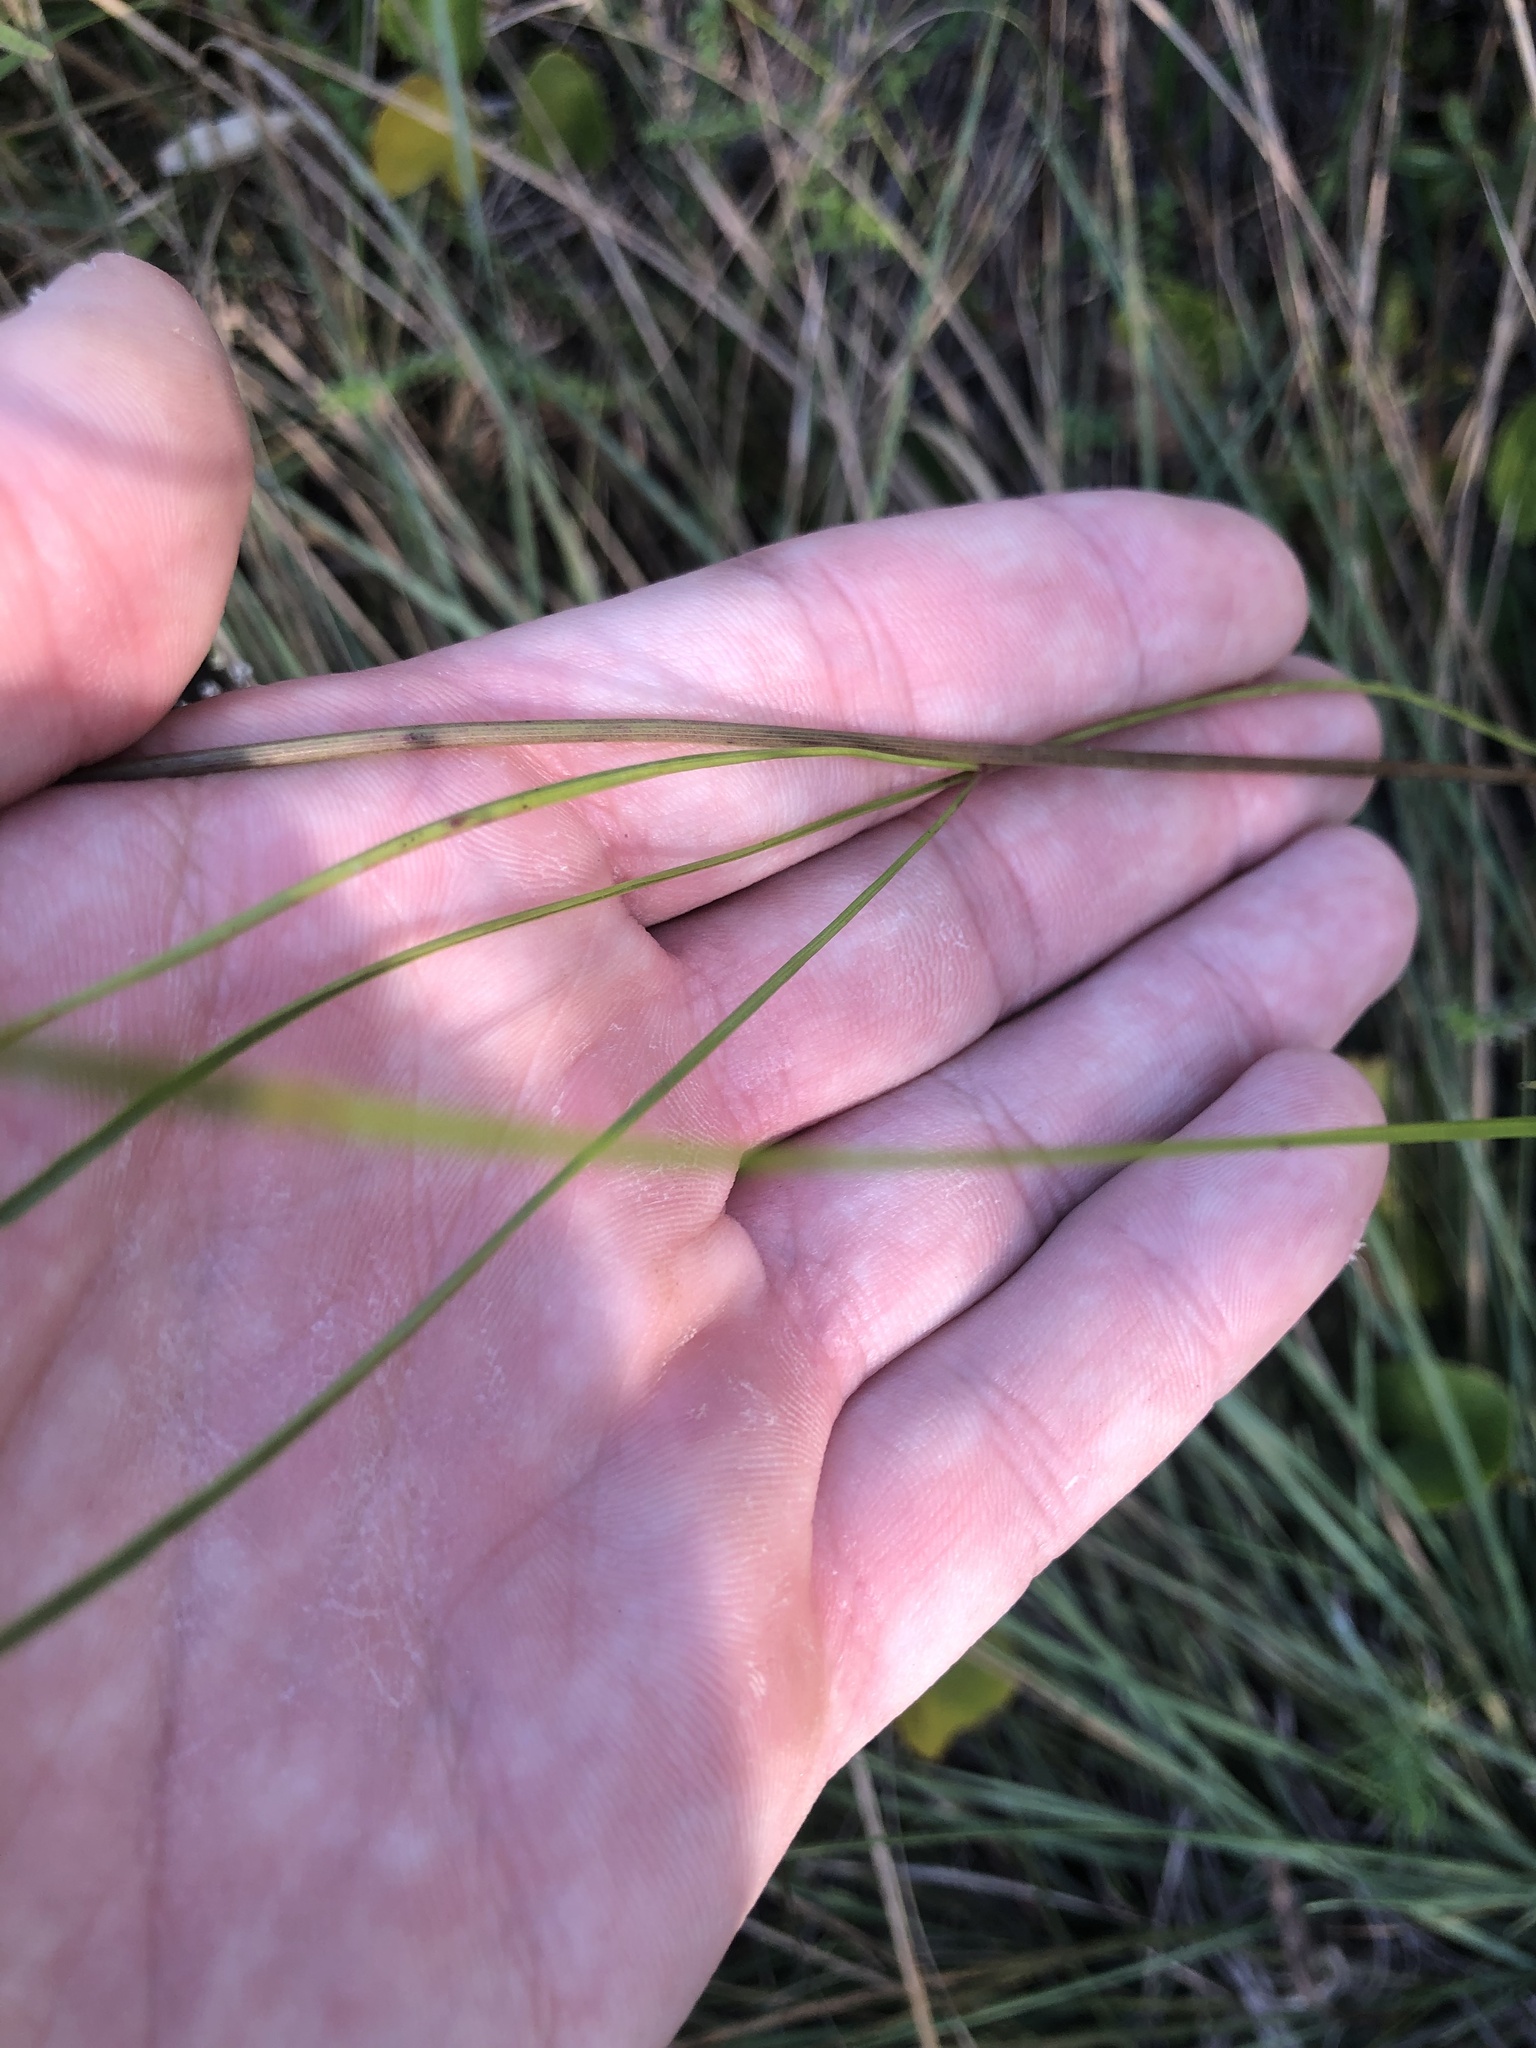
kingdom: Plantae
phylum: Tracheophyta
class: Magnoliopsida
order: Apiales
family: Apiaceae
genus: Oxypolis
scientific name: Oxypolis ternata
